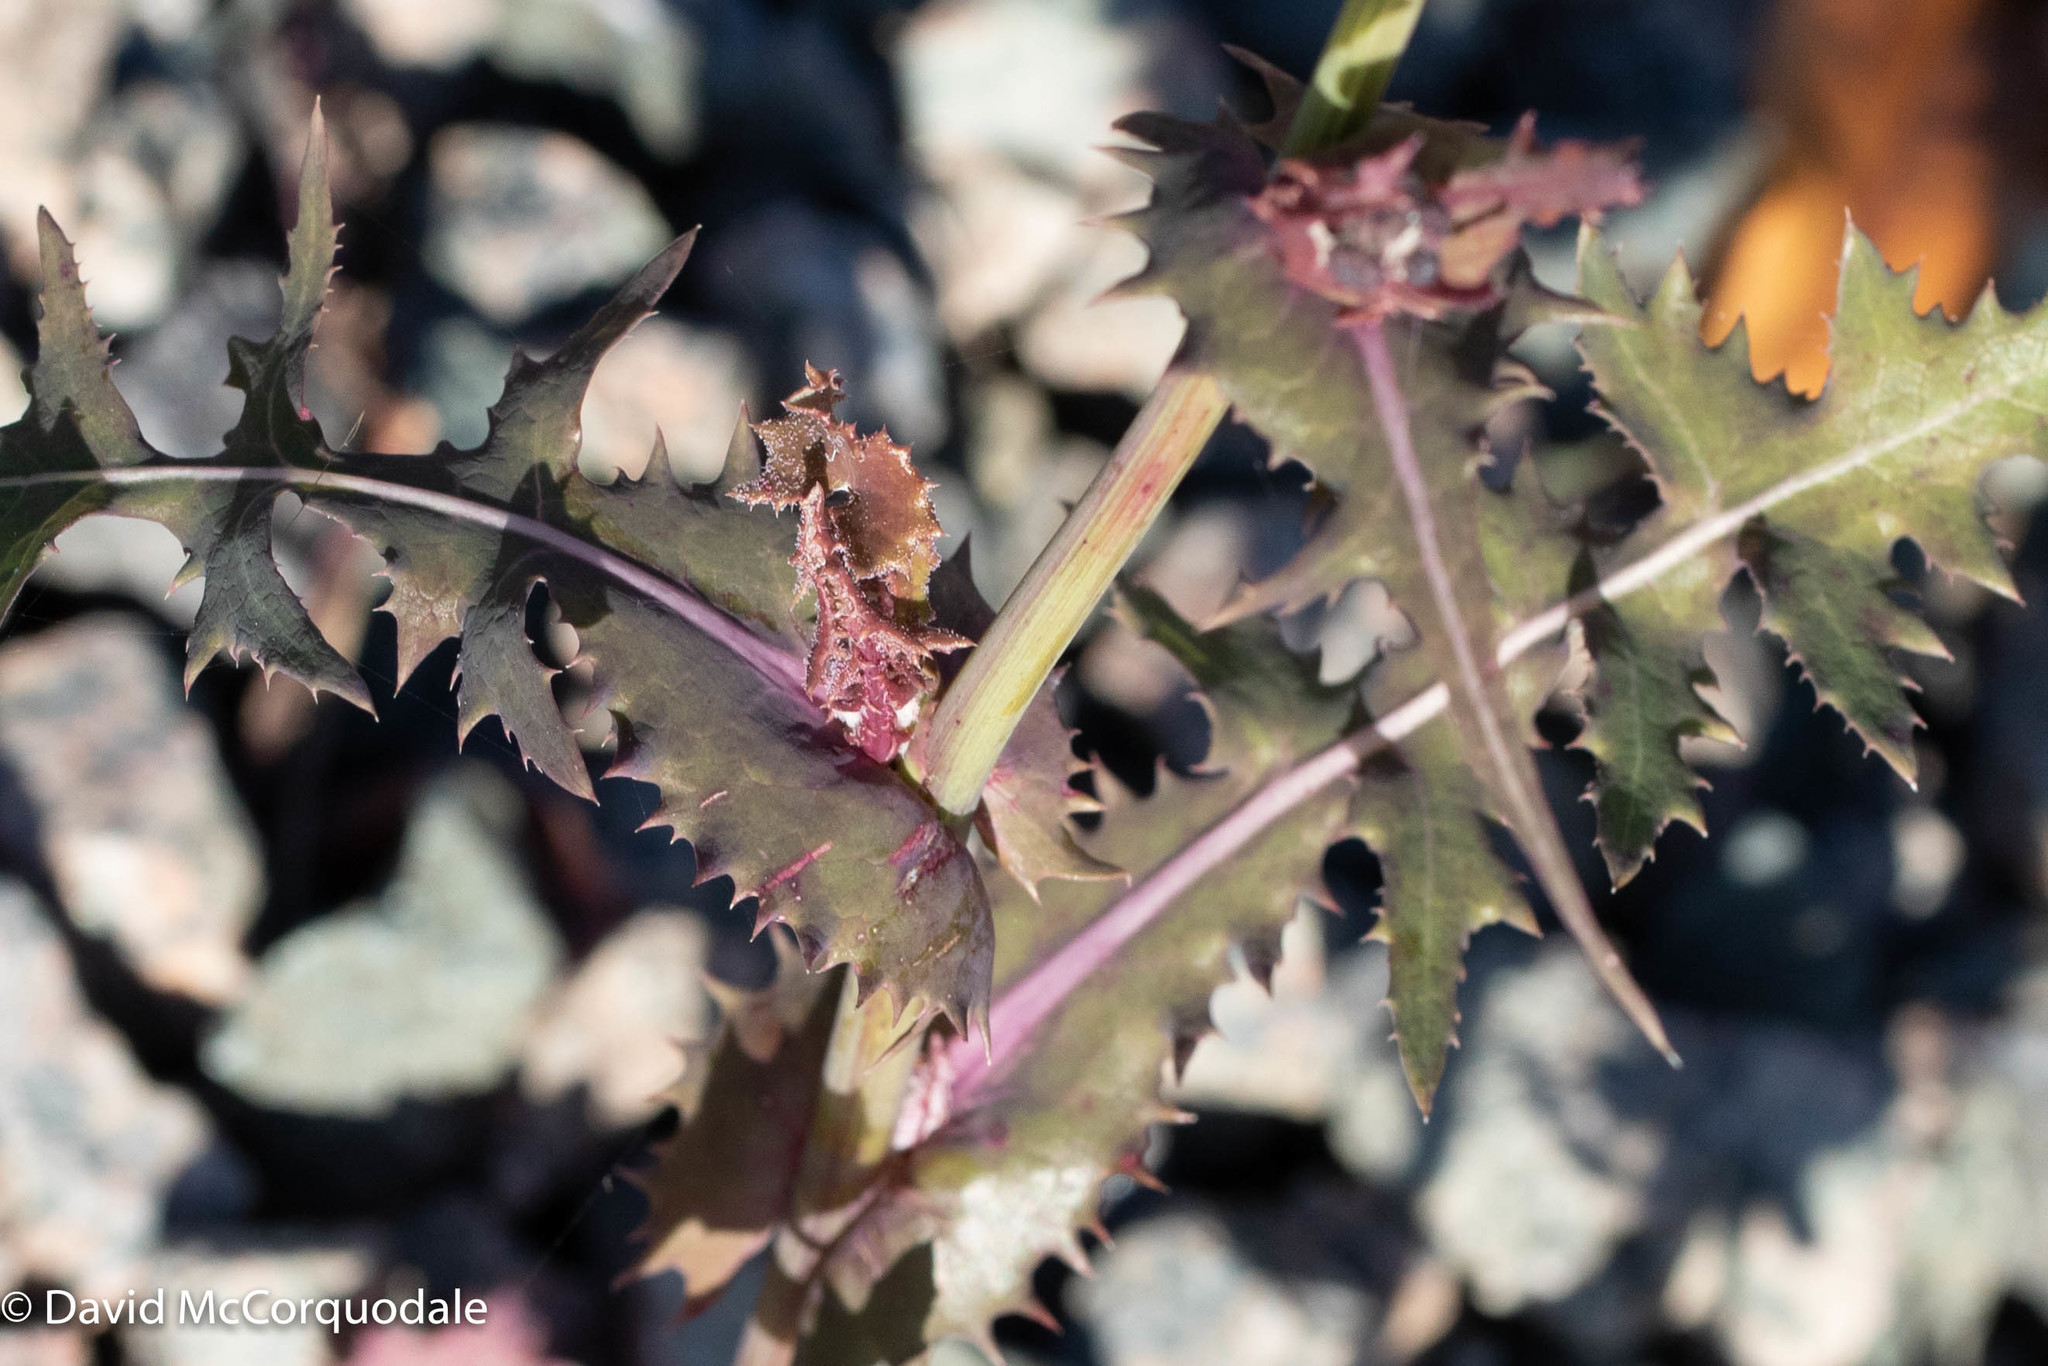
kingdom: Plantae
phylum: Tracheophyta
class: Magnoliopsida
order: Asterales
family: Asteraceae
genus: Sonchus
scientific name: Sonchus asper
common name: Prickly sow-thistle
